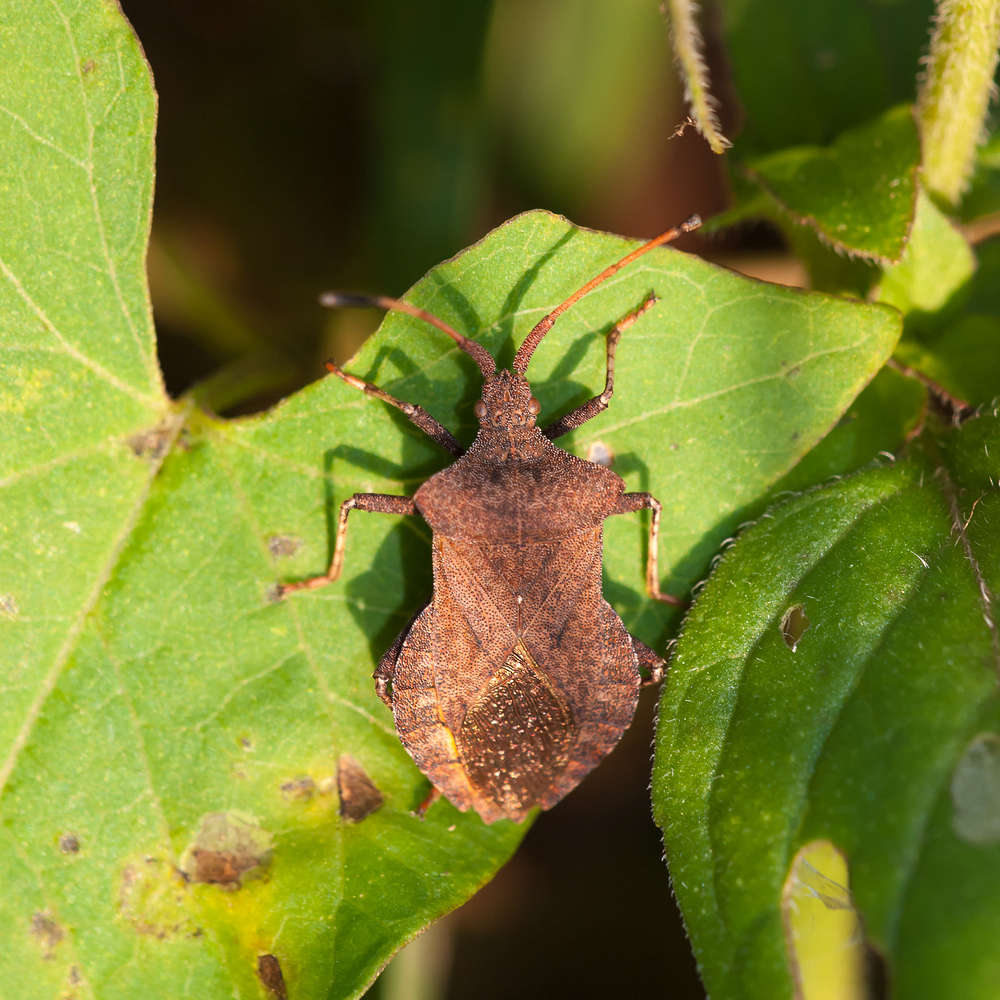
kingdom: Animalia
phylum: Arthropoda
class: Insecta
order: Hemiptera
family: Coreidae
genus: Coreus
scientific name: Coreus marginatus
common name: Dock bug
